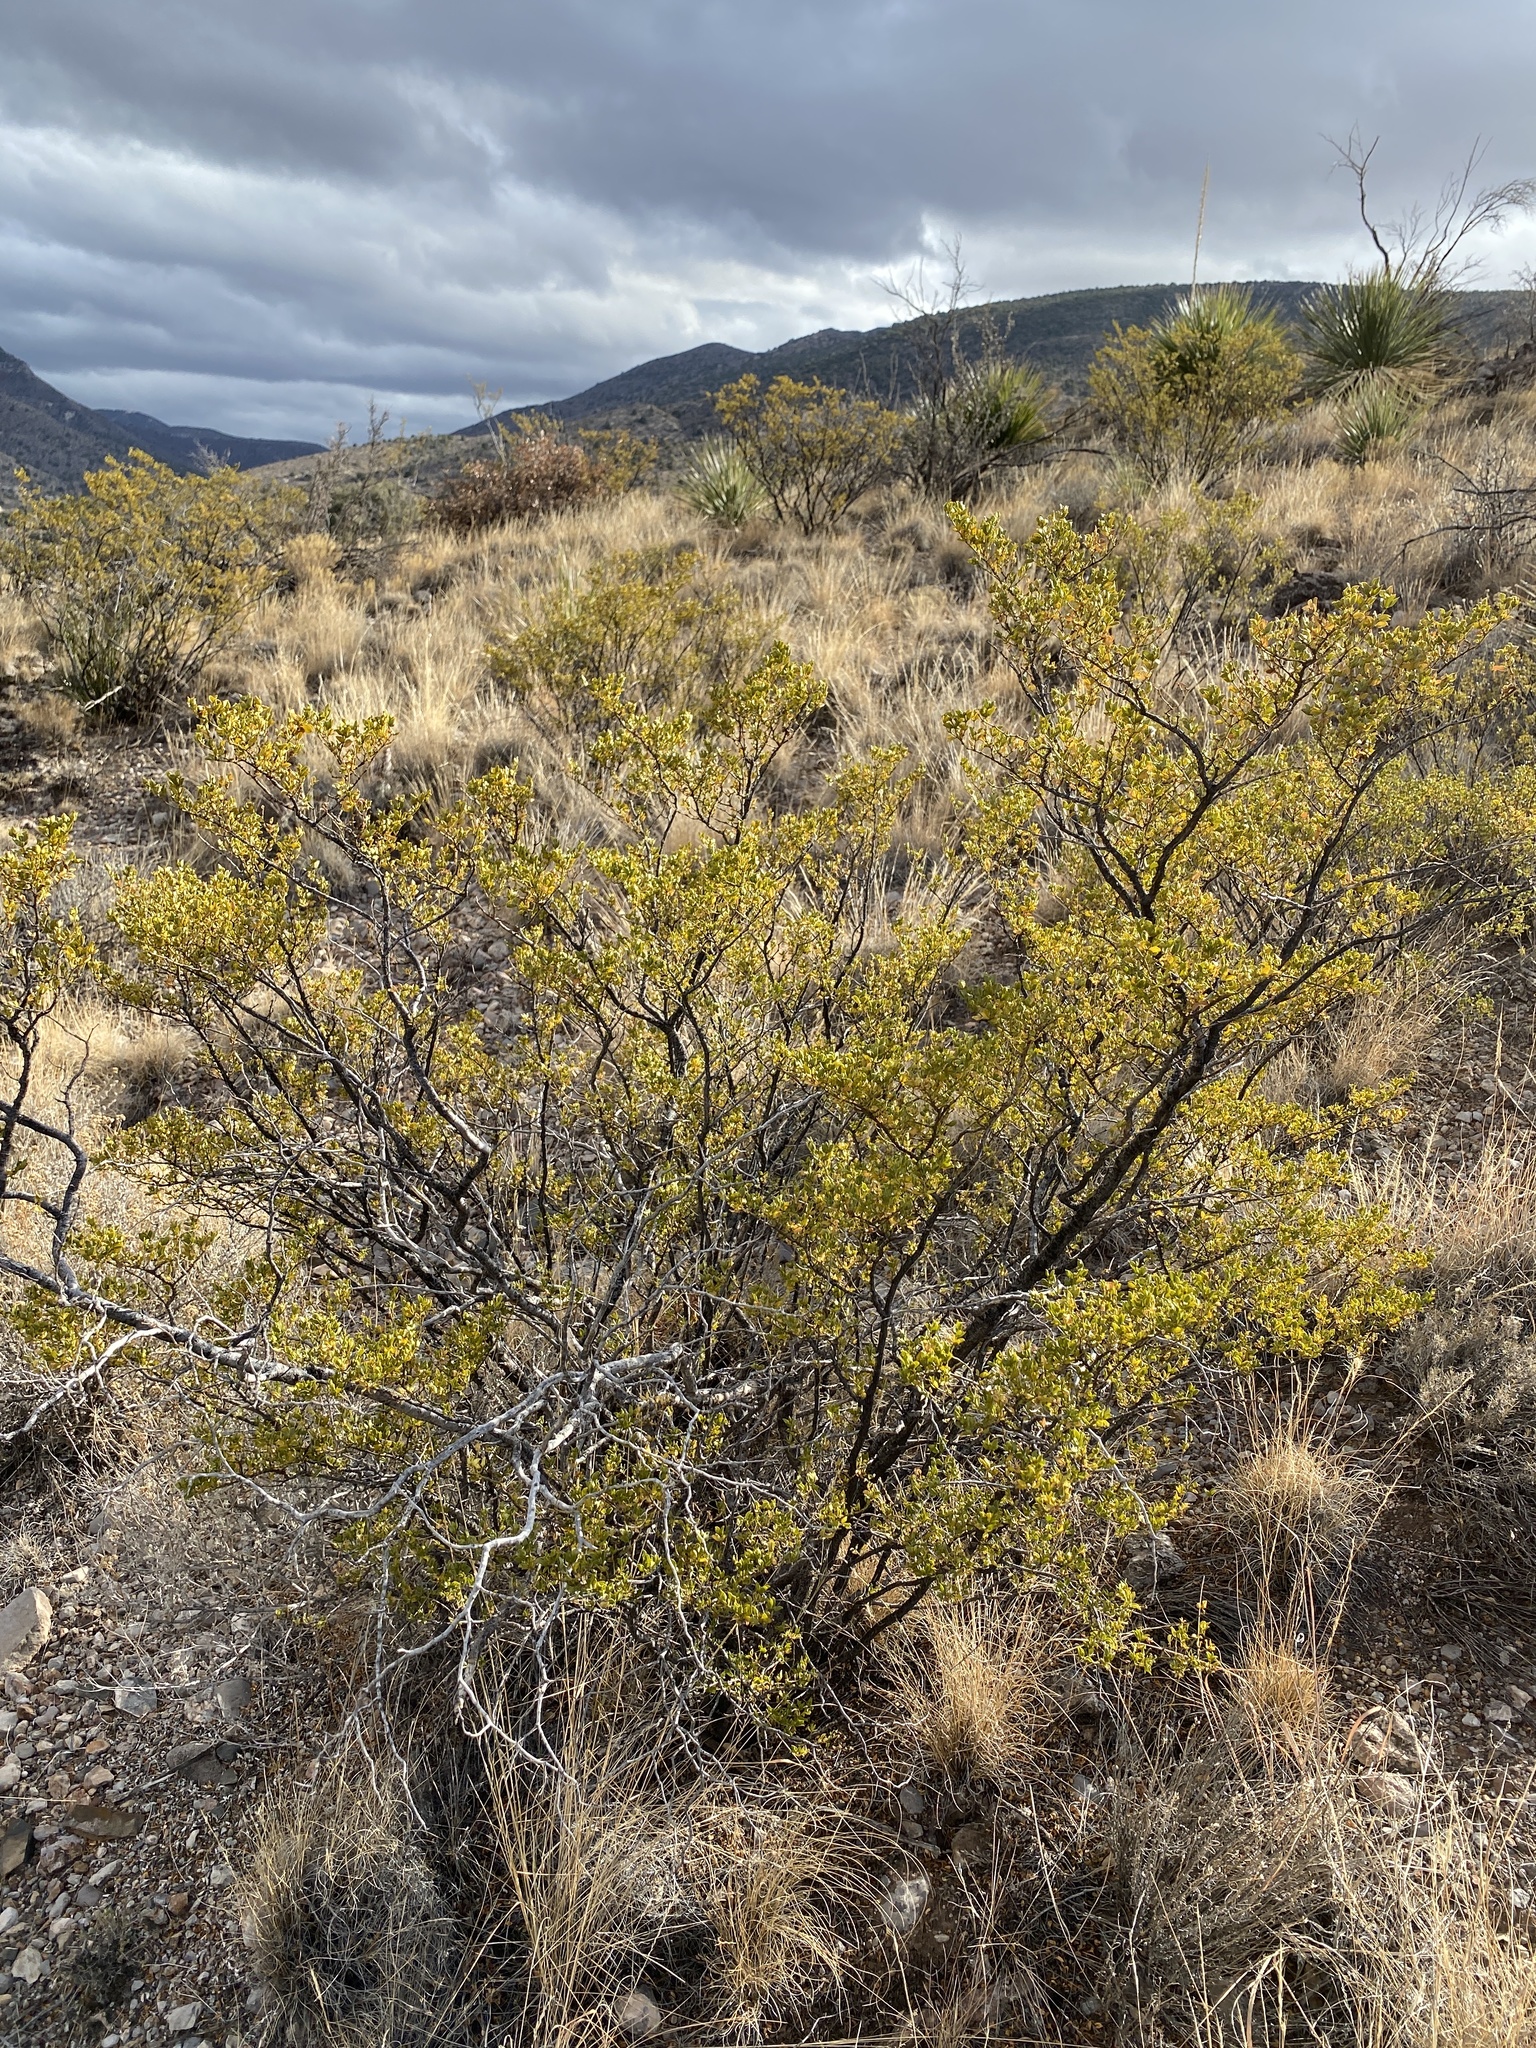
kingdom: Plantae
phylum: Tracheophyta
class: Magnoliopsida
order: Zygophyllales
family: Zygophyllaceae
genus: Larrea
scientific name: Larrea tridentata
